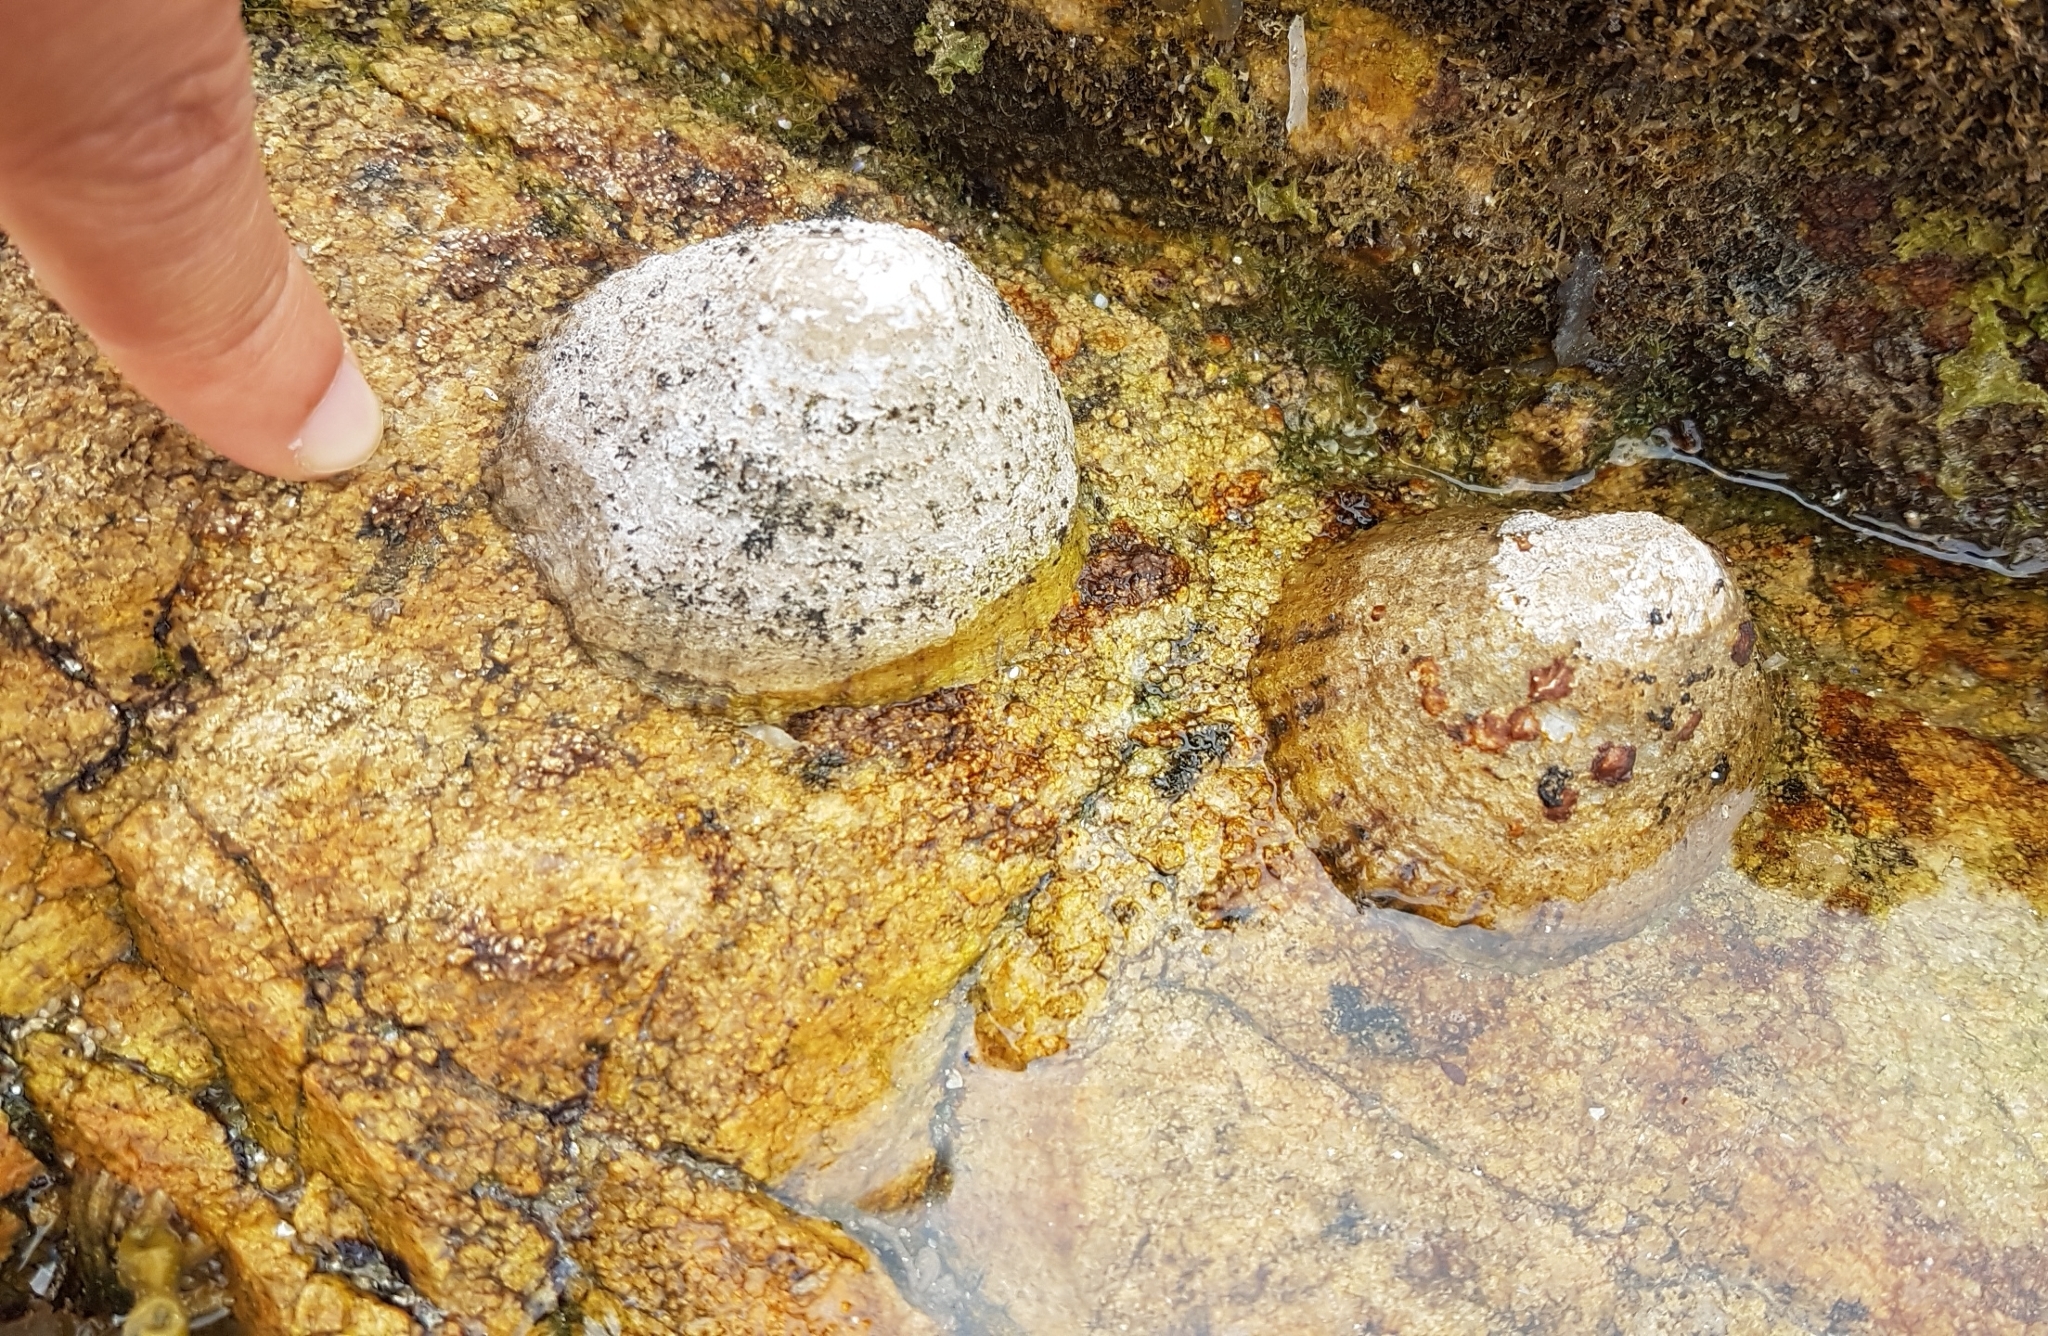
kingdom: Animalia
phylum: Mollusca
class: Gastropoda
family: Patellidae
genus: Patella
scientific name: Patella vulgata
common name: Common limpet
